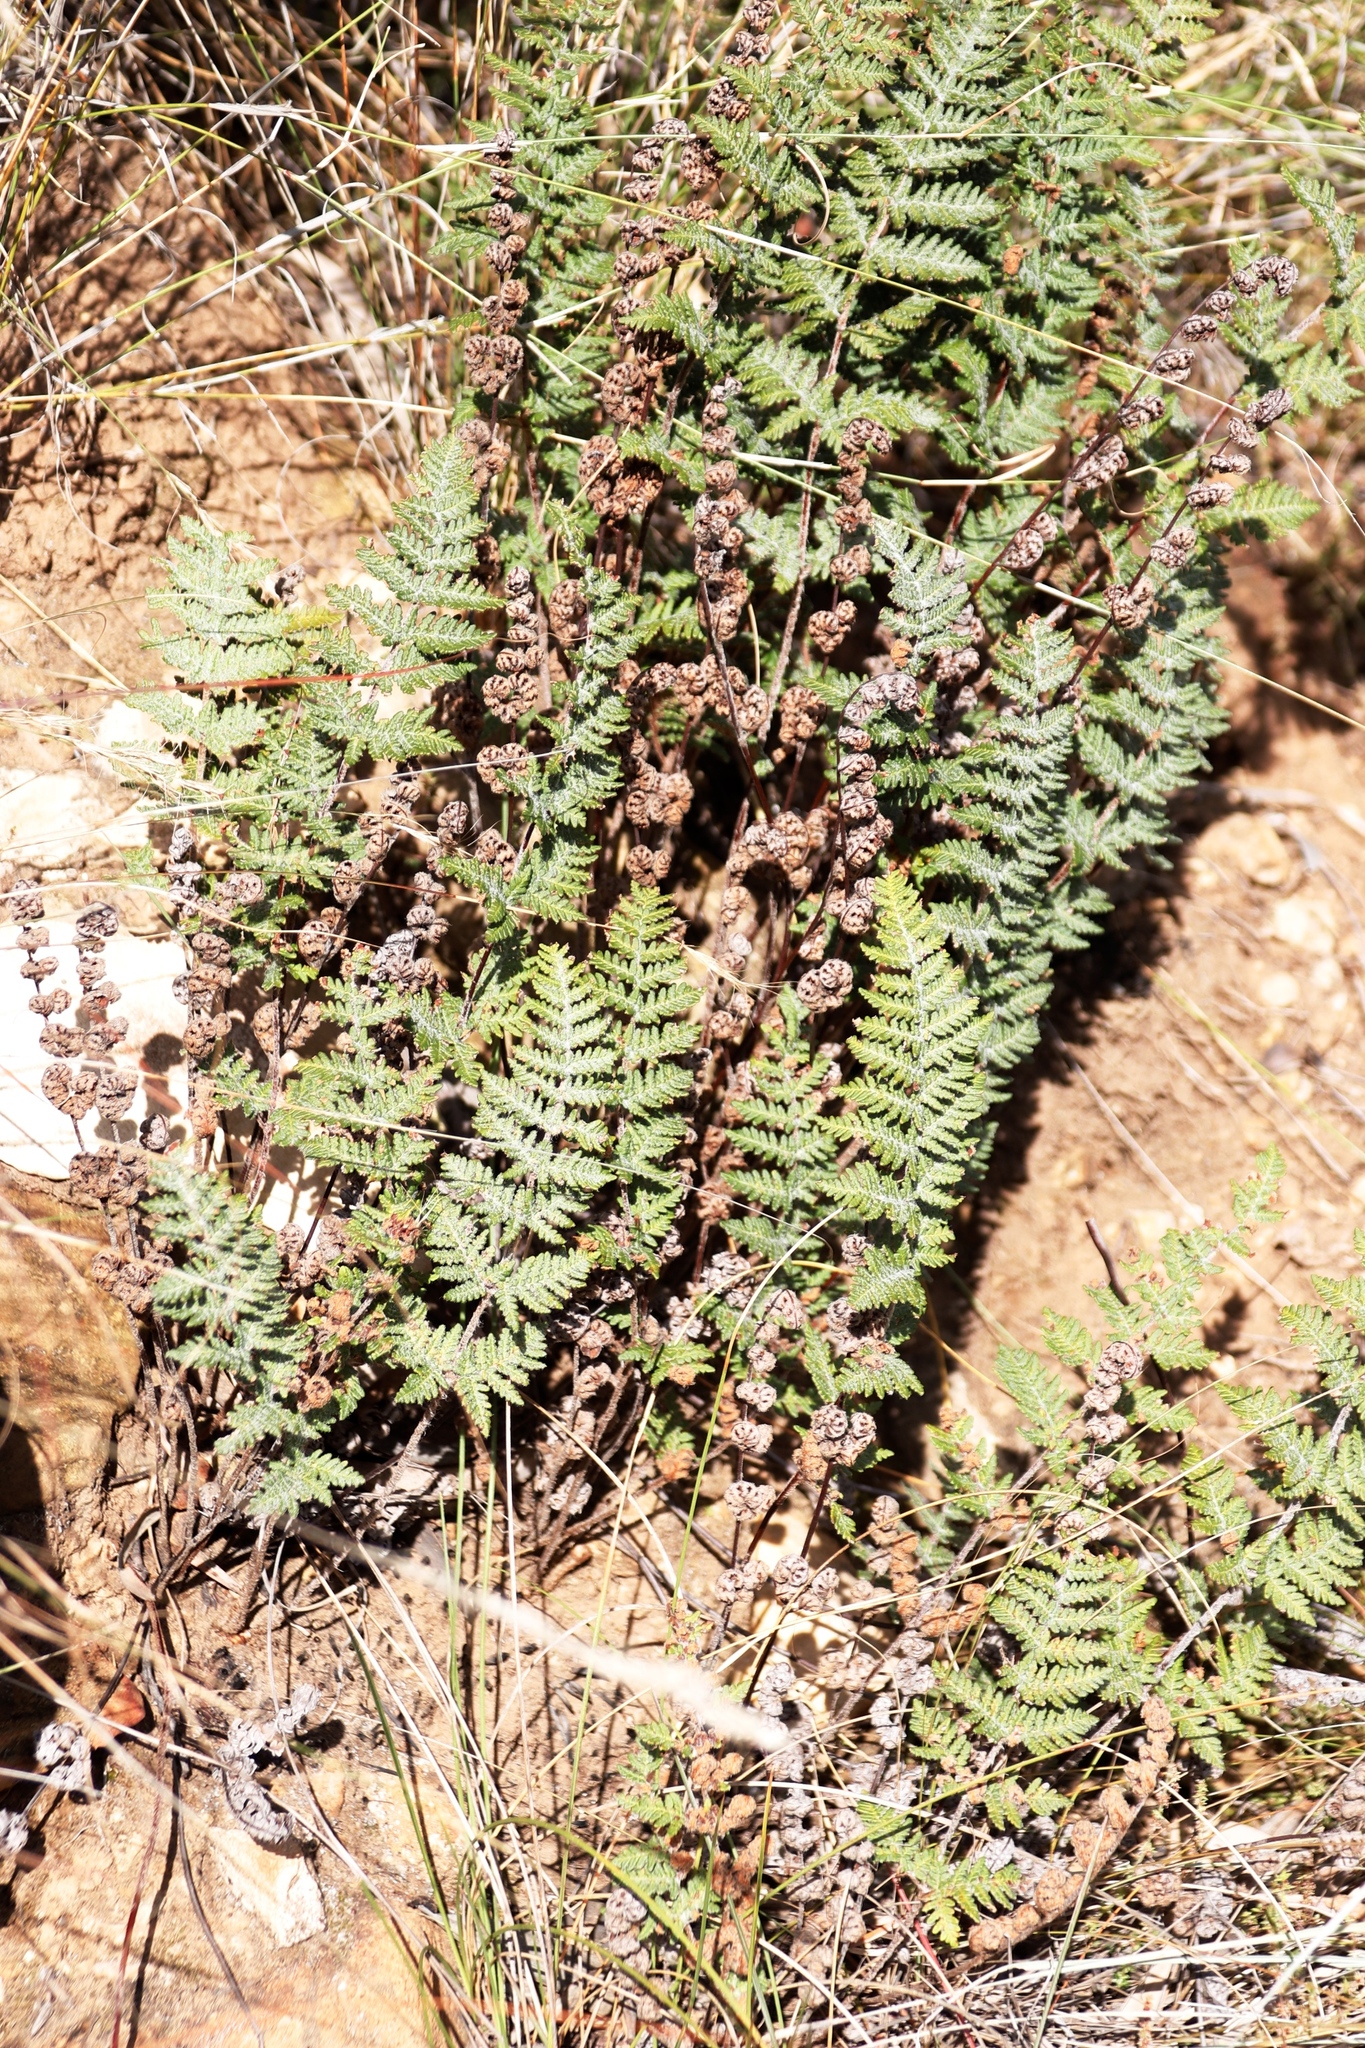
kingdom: Plantae
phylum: Tracheophyta
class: Polypodiopsida
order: Polypodiales
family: Pteridaceae
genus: Cheilanthes
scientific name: Cheilanthes eckloniana
